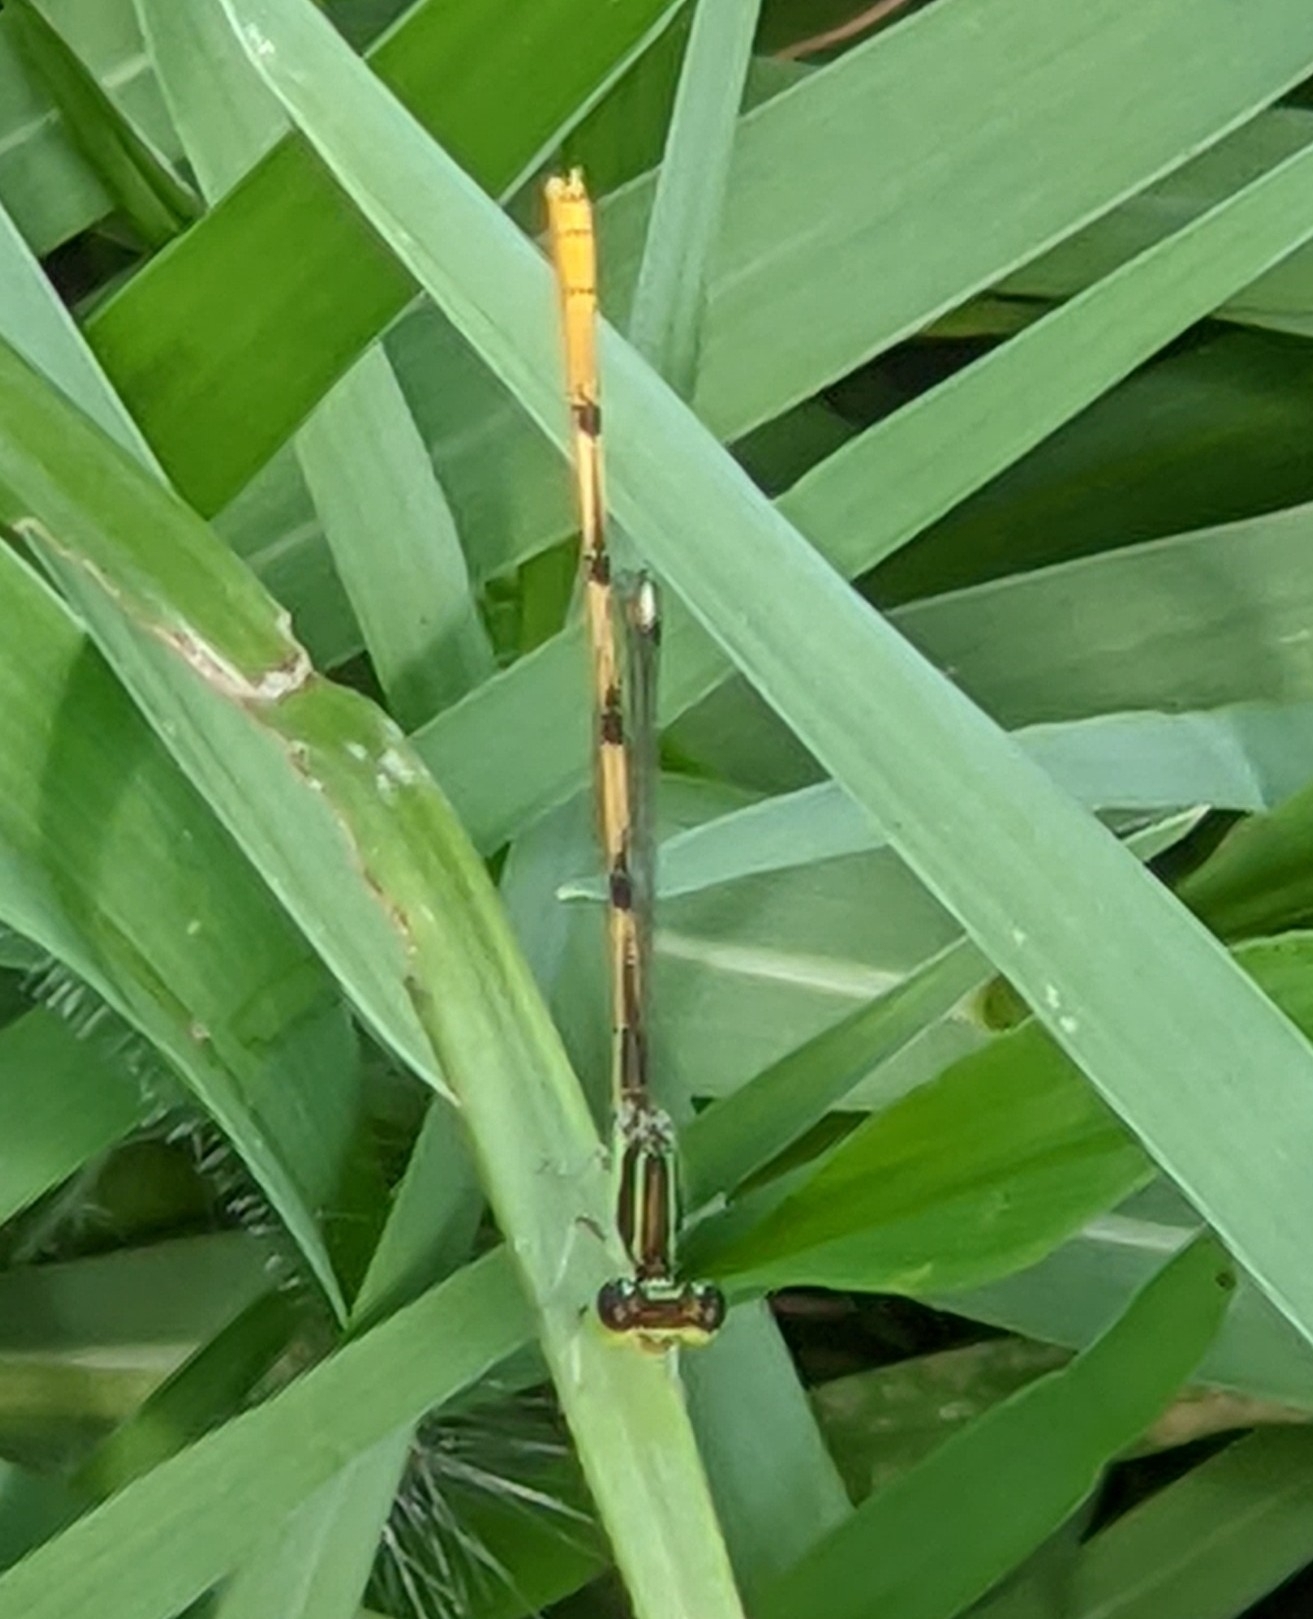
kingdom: Animalia
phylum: Arthropoda
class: Insecta
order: Odonata
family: Coenagrionidae
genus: Ischnura
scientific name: Ischnura hastata
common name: Citrine forktail
